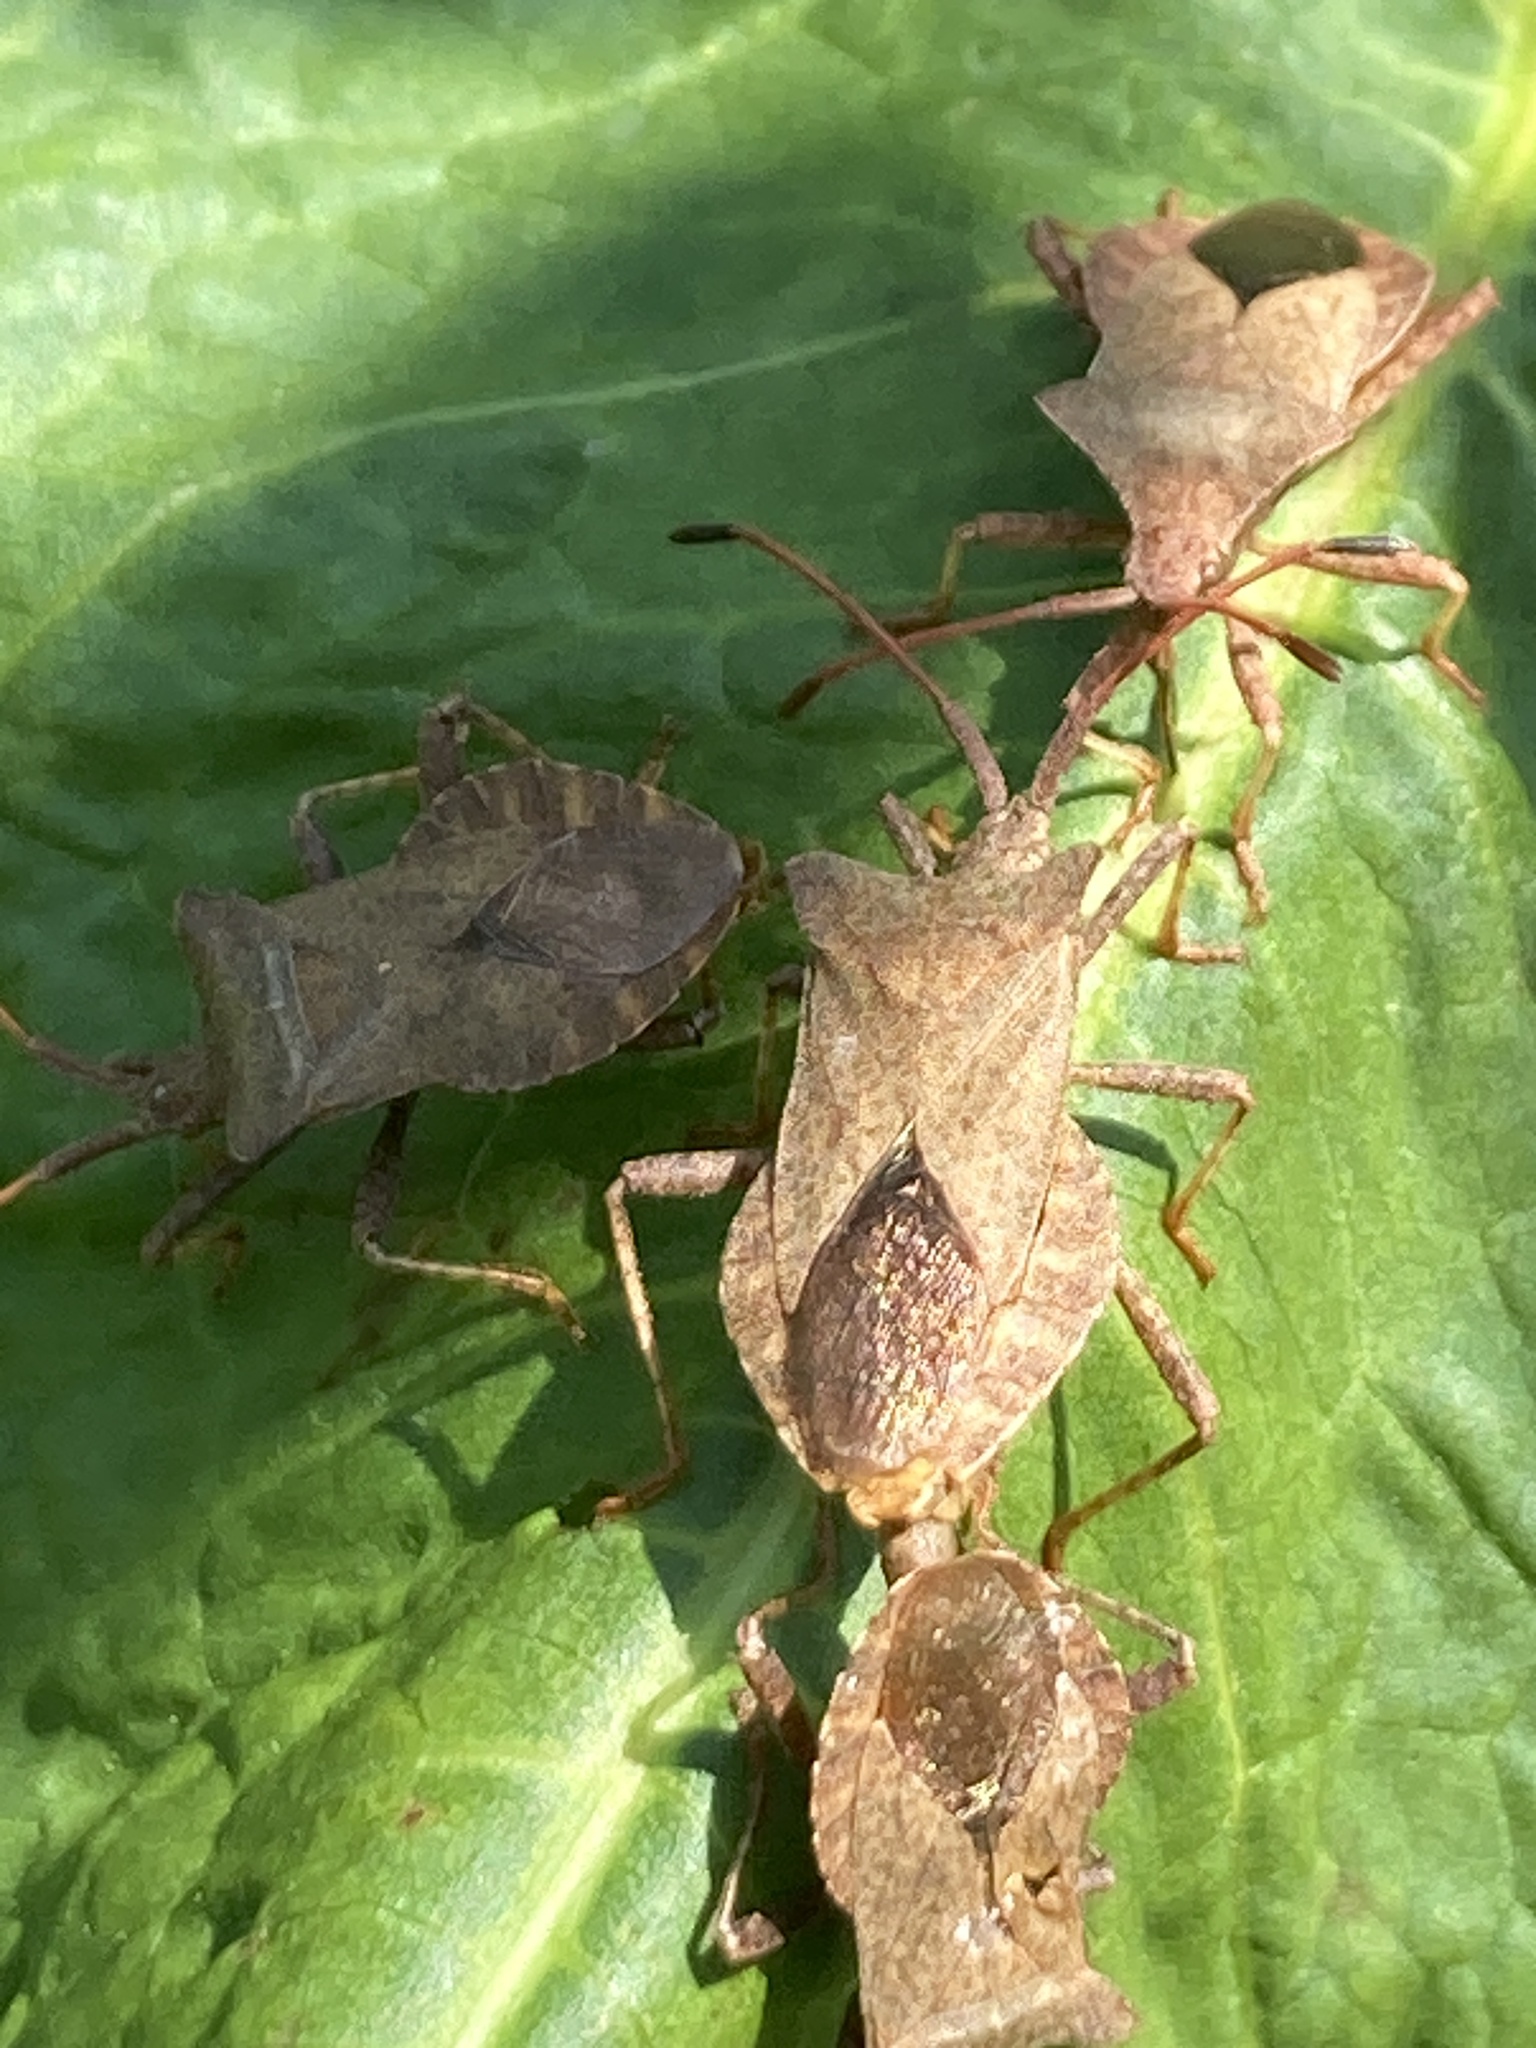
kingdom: Animalia
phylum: Arthropoda
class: Insecta
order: Hemiptera
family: Coreidae
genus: Coreus
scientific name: Coreus marginatus
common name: Dock bug
